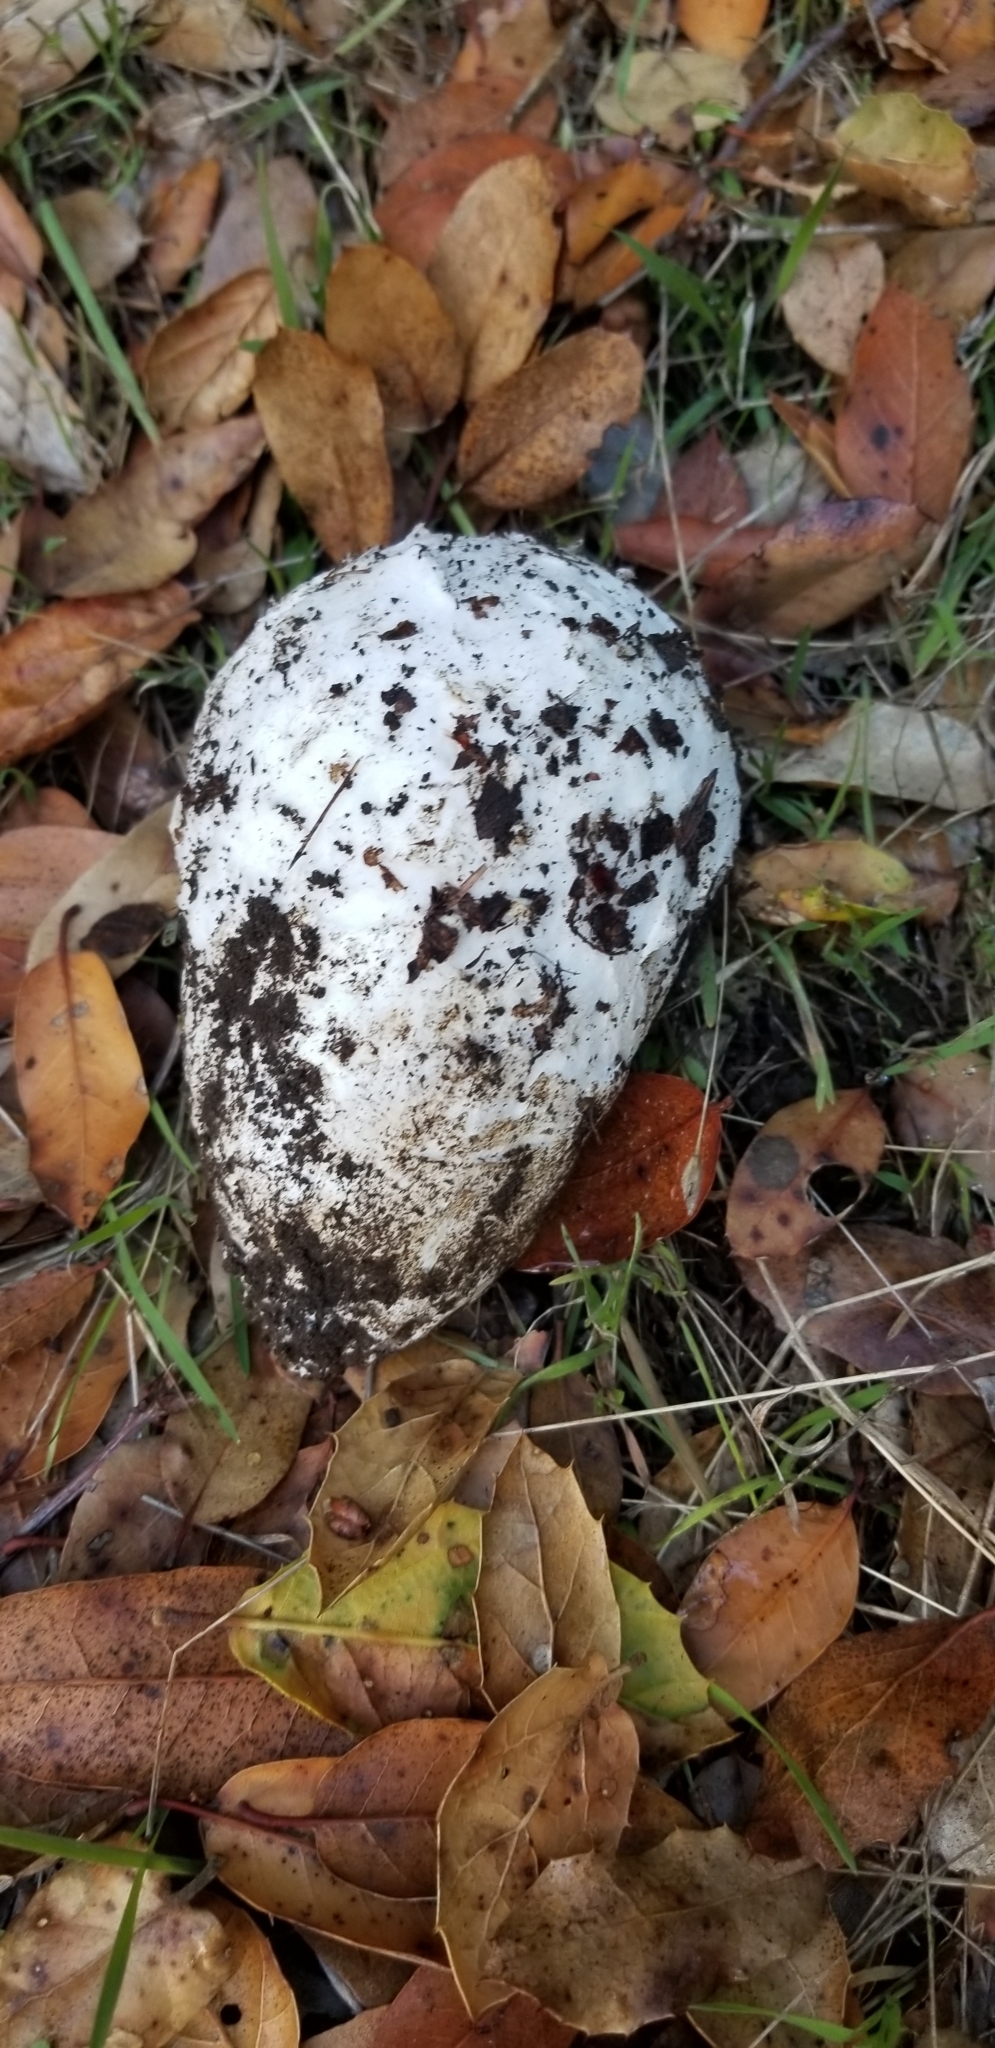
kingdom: Fungi
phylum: Basidiomycota
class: Agaricomycetes
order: Agaricales
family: Amanitaceae
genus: Amanita
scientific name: Amanita calyptroderma
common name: Coccora
